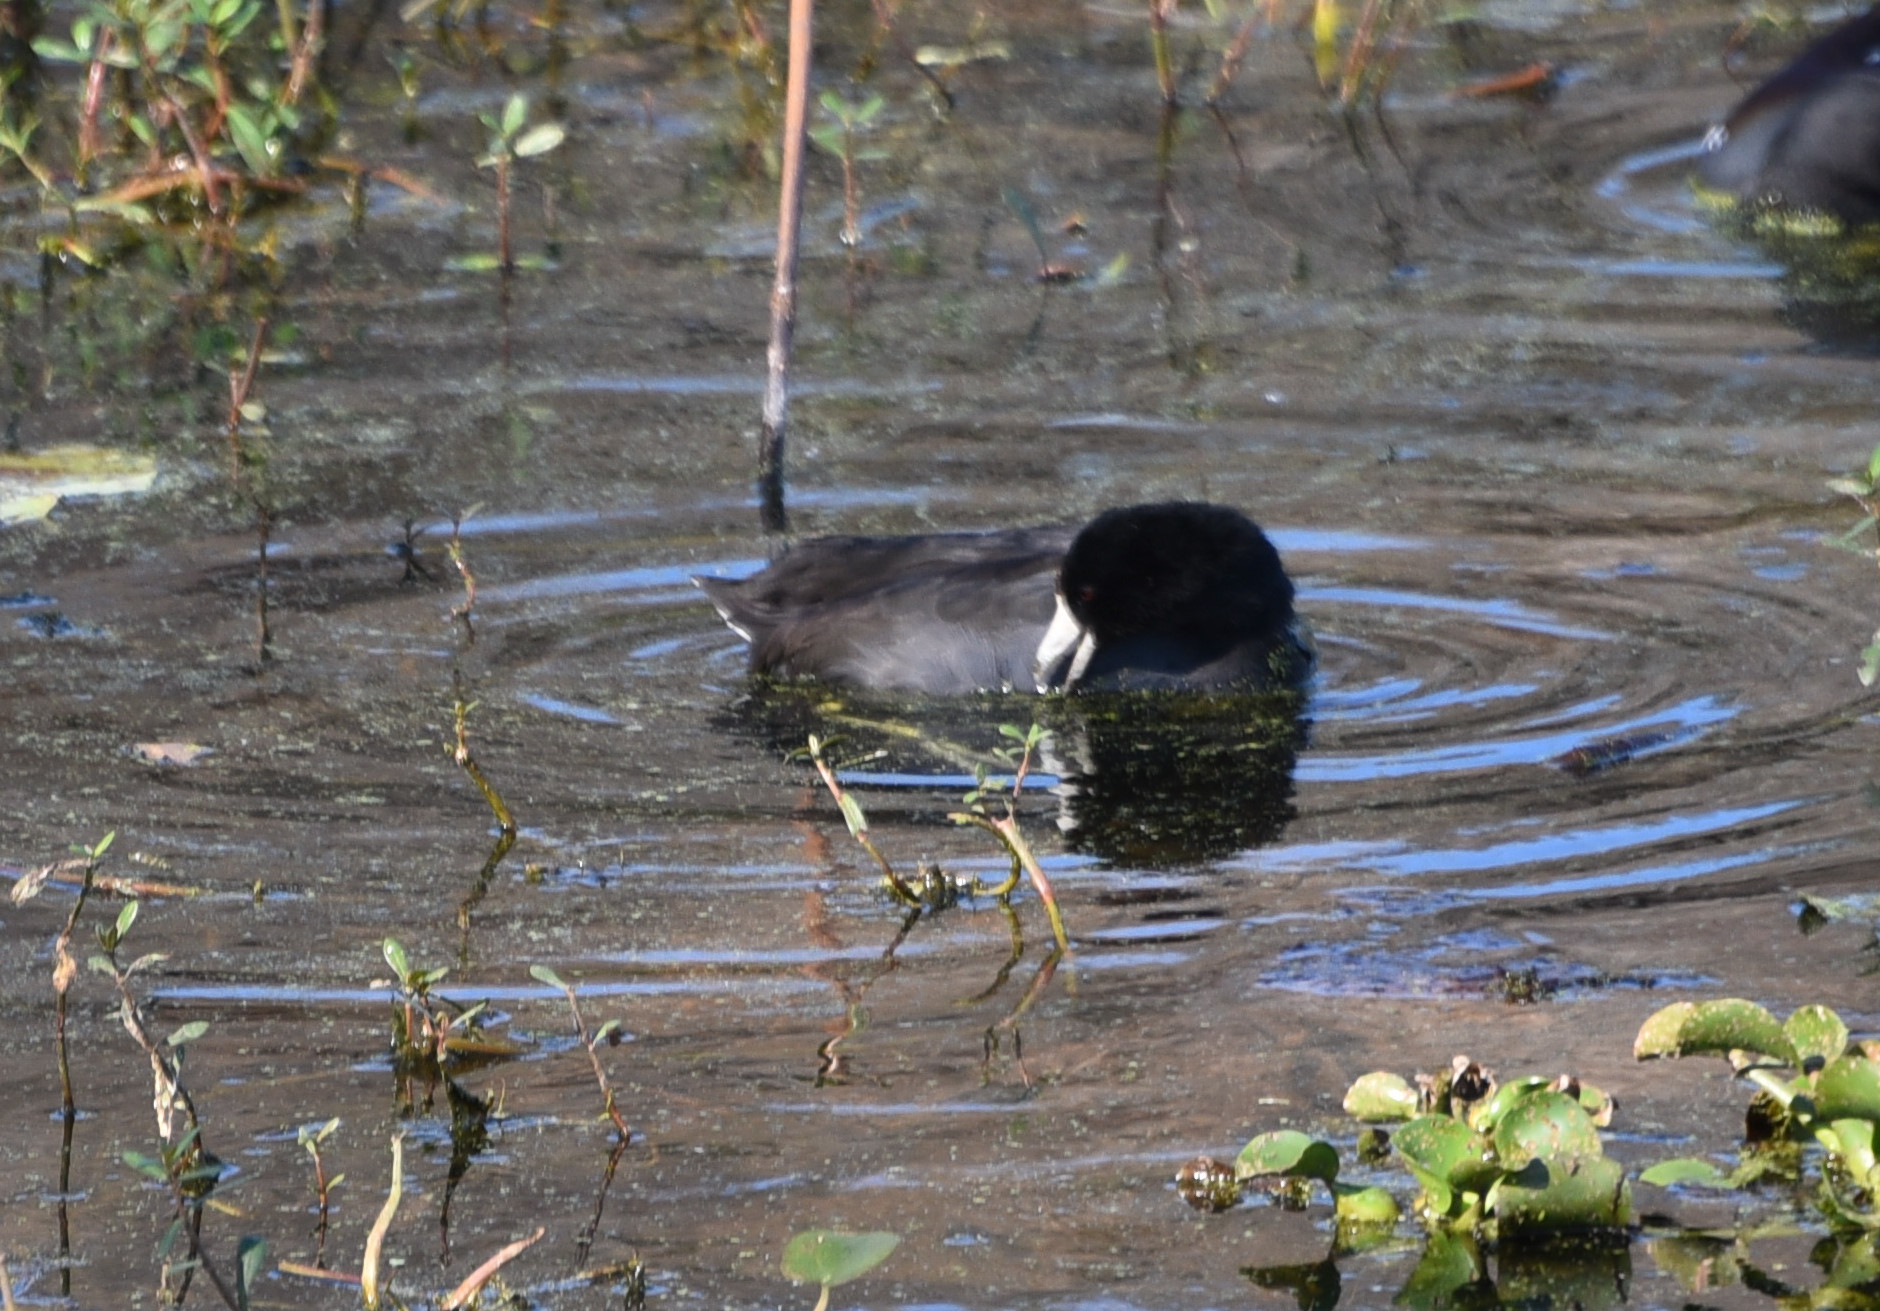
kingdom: Animalia
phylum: Chordata
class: Aves
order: Gruiformes
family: Rallidae
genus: Fulica
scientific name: Fulica americana
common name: American coot
